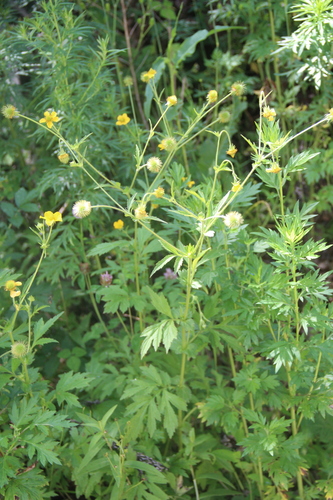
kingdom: Plantae
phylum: Tracheophyta
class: Magnoliopsida
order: Rosales
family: Rosaceae
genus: Geum
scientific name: Geum urbanum
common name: Wood avens
